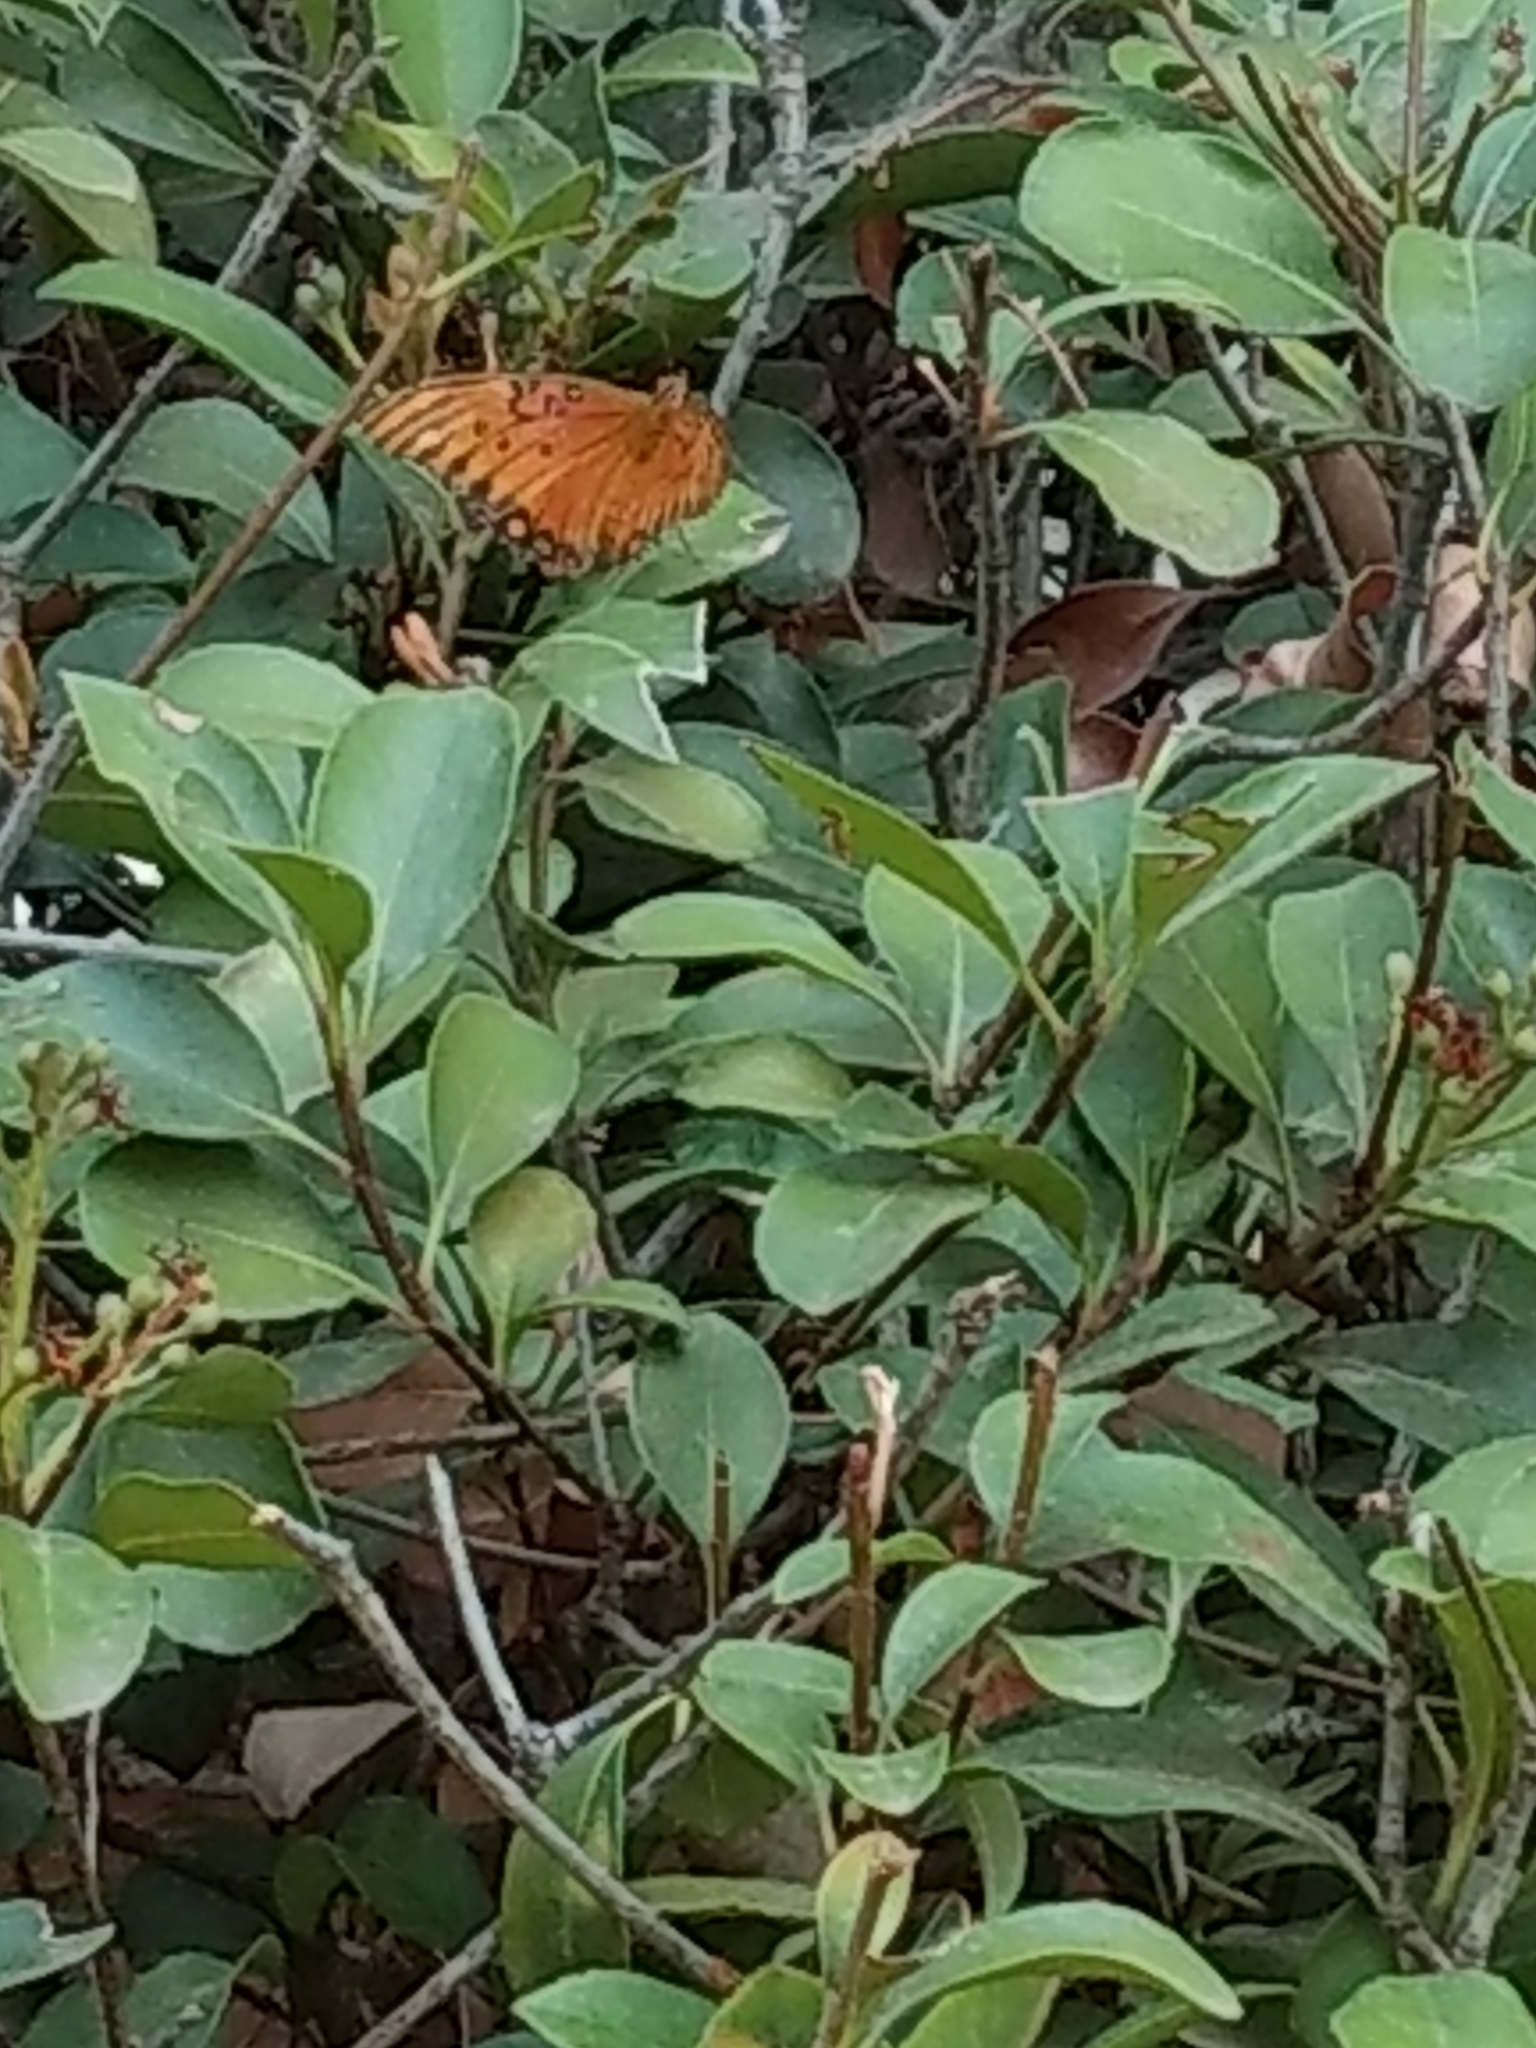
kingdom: Animalia
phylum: Arthropoda
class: Insecta
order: Lepidoptera
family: Nymphalidae
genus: Dione
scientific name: Dione vanillae
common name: Gulf fritillary
